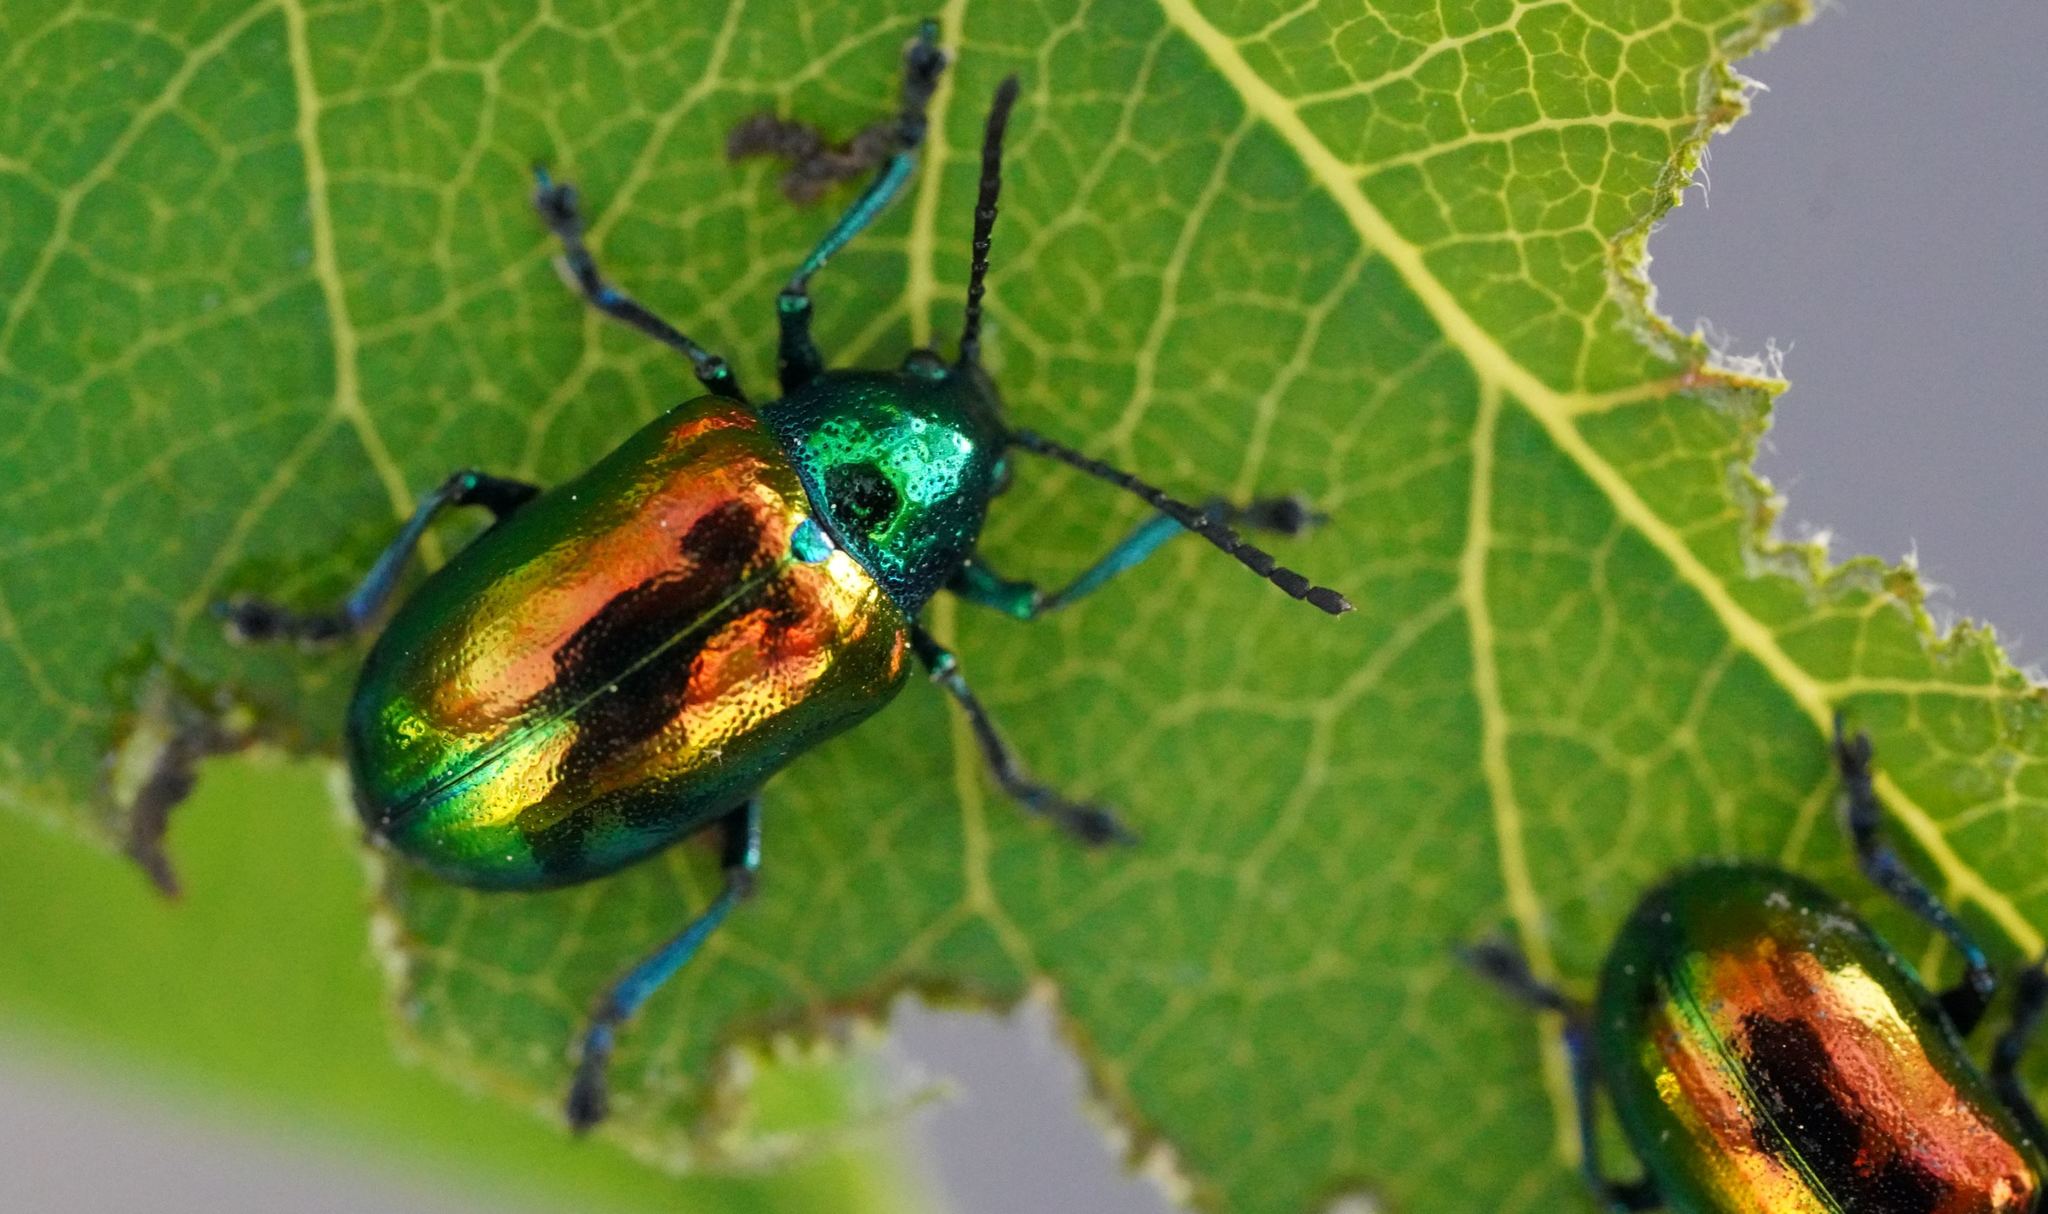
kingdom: Animalia
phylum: Arthropoda
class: Insecta
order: Coleoptera
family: Chrysomelidae
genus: Chrysochus
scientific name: Chrysochus auratus
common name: Dogbane leaf beetle
